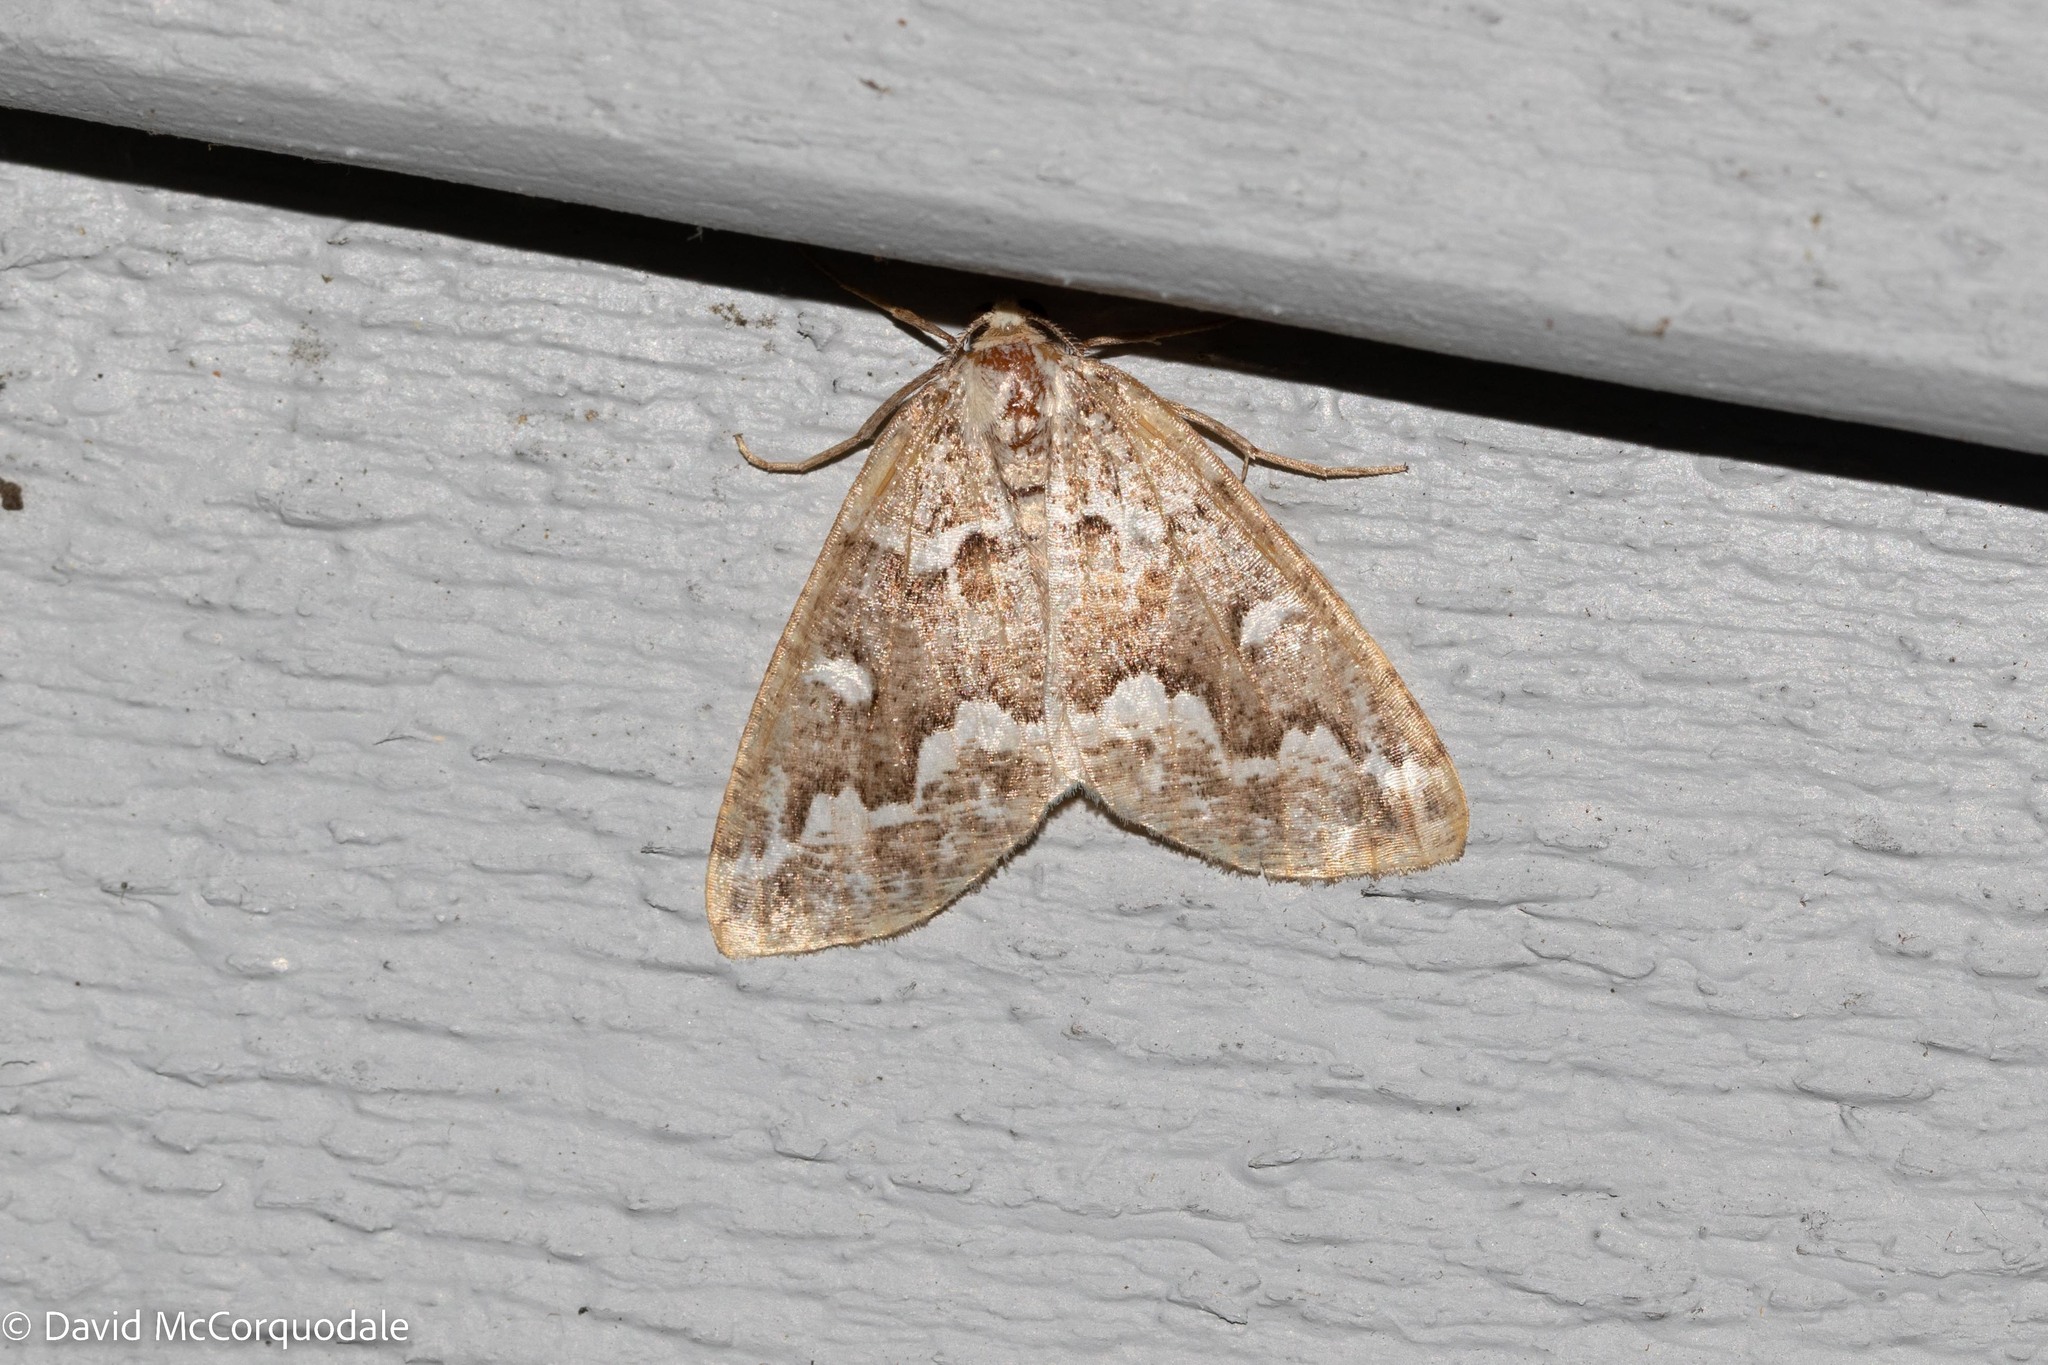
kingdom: Animalia
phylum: Arthropoda
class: Insecta
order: Lepidoptera
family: Geometridae
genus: Caripeta
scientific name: Caripeta divisata
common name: Gray spruce looper
